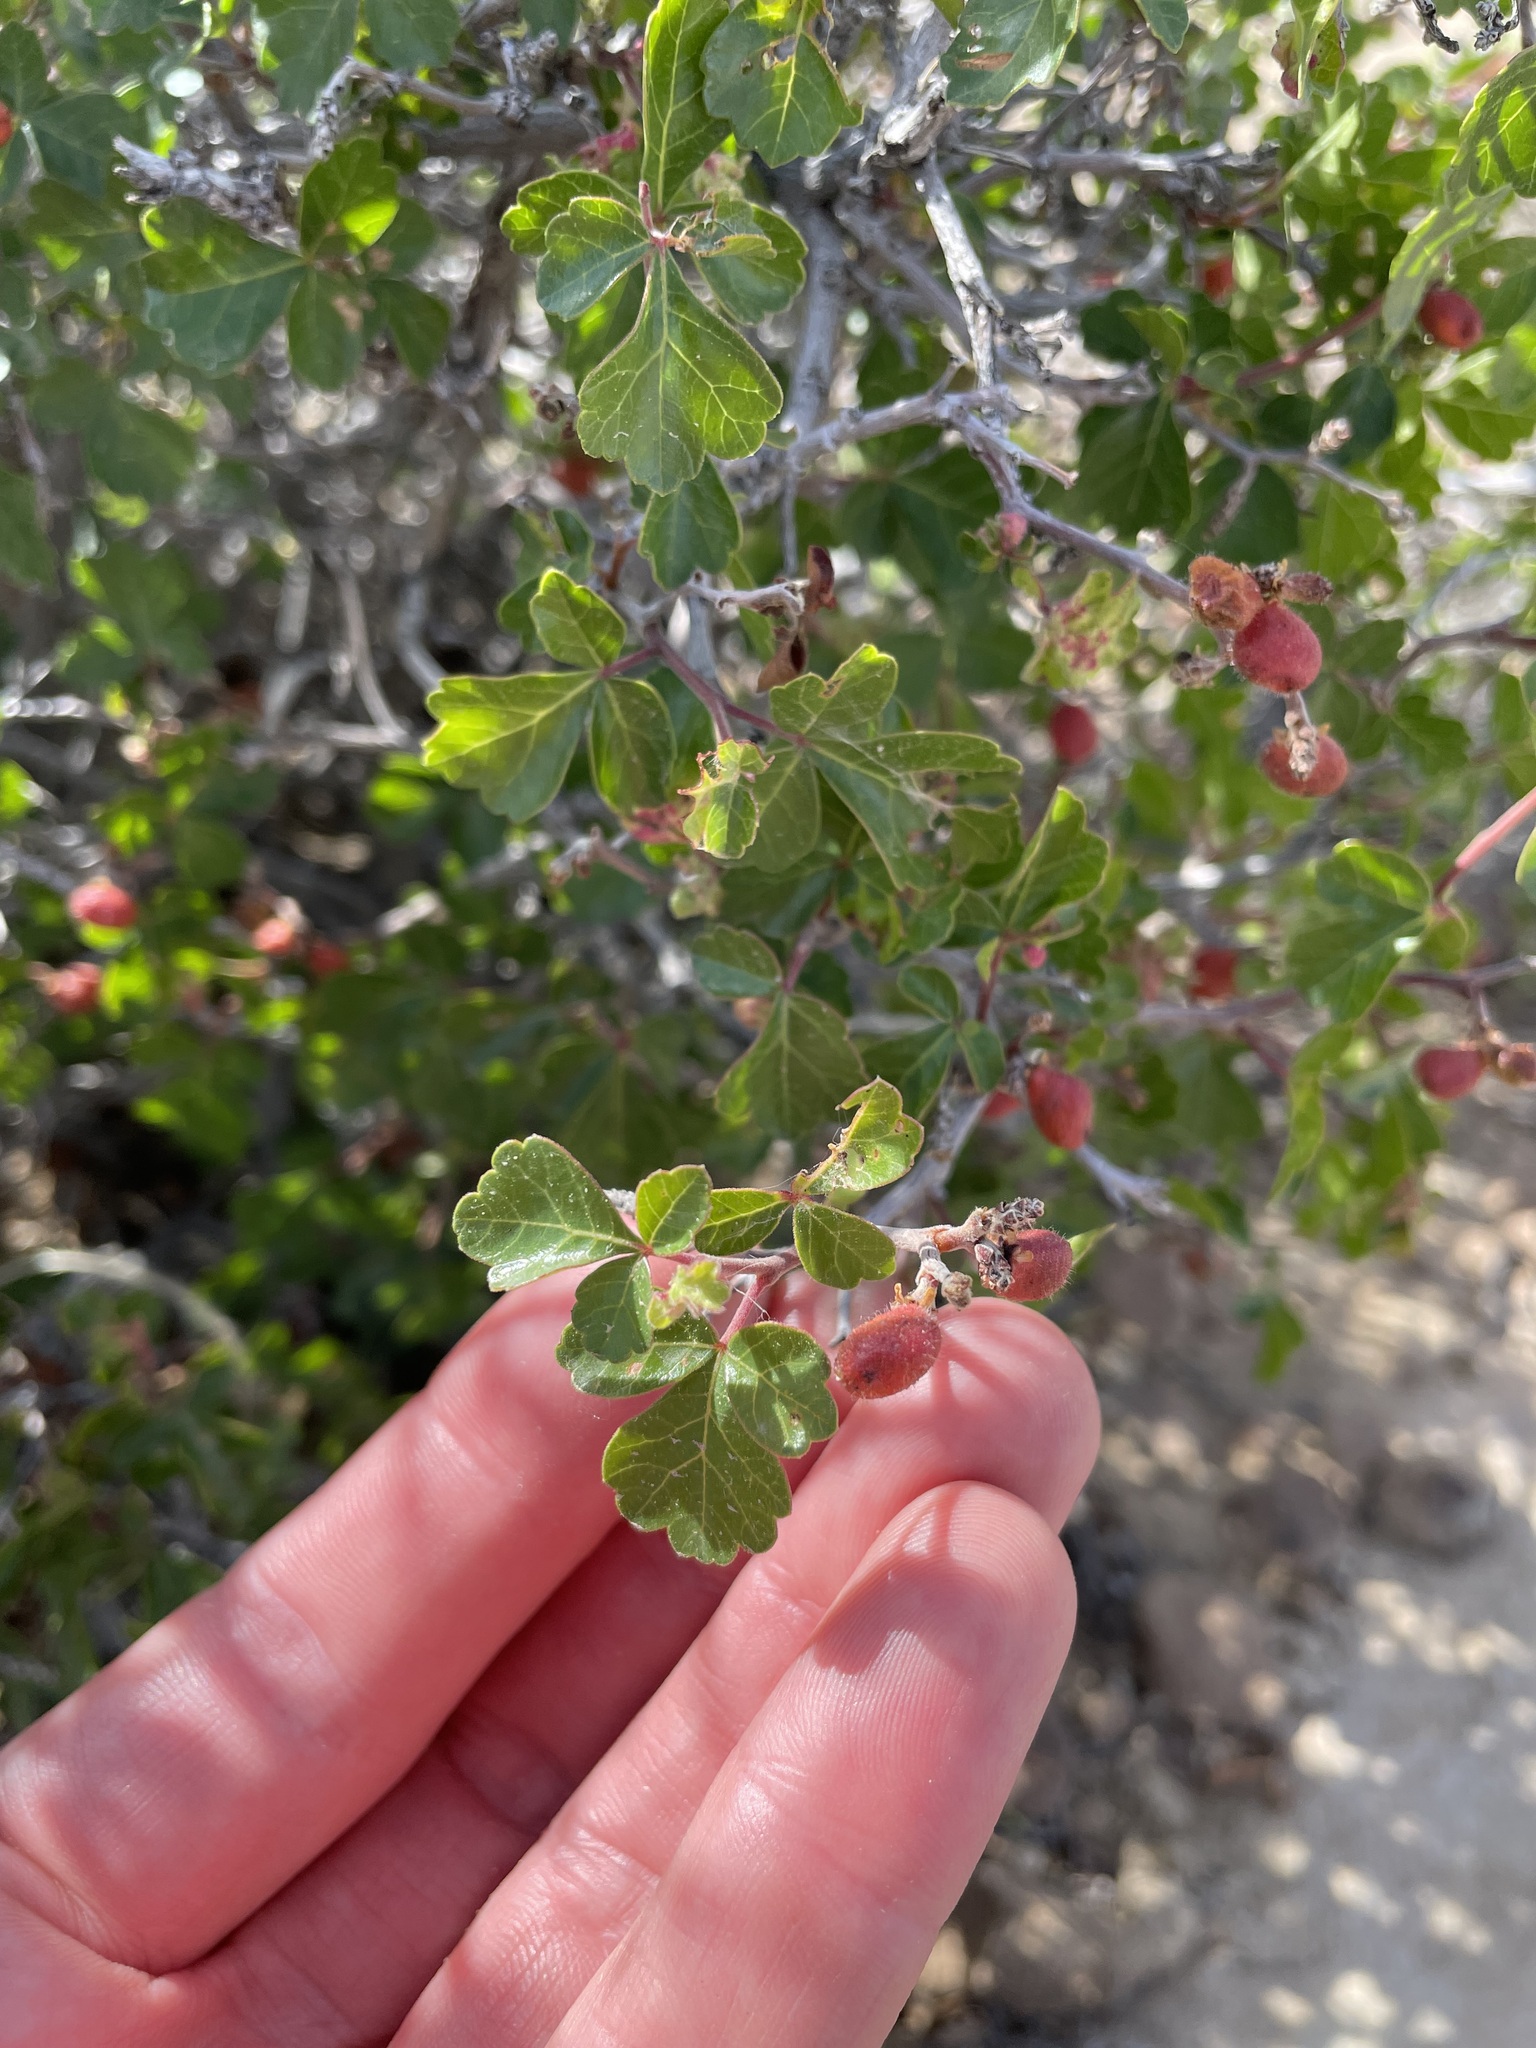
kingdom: Plantae
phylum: Tracheophyta
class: Magnoliopsida
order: Sapindales
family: Anacardiaceae
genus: Rhus
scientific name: Rhus trilobata
